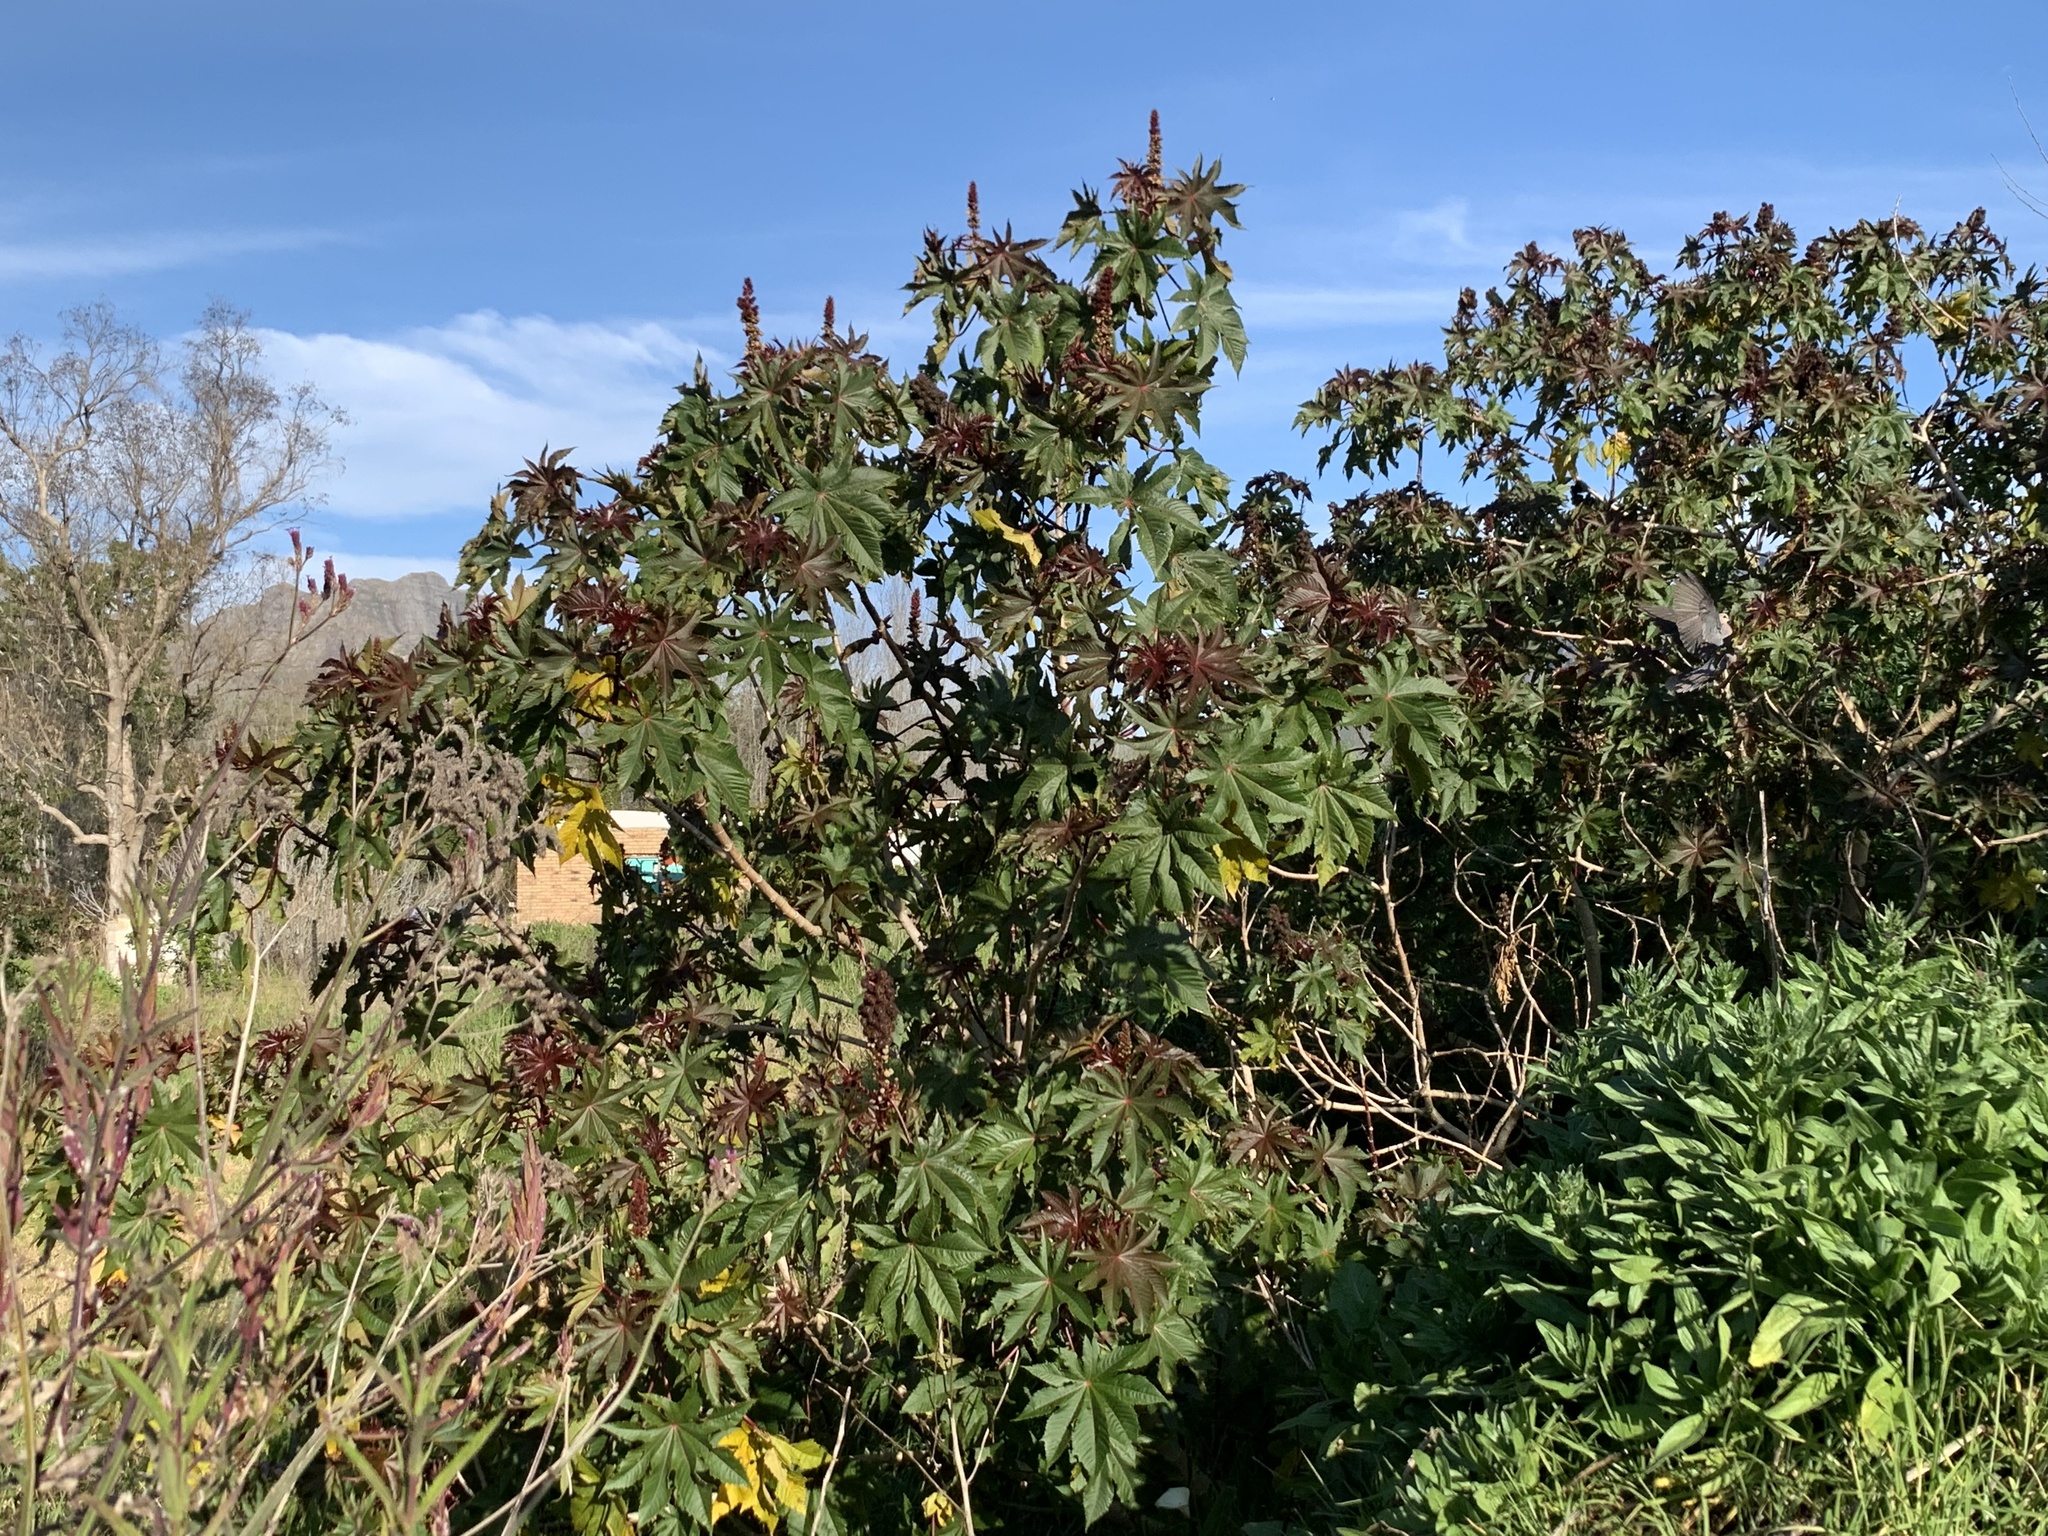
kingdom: Plantae
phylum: Tracheophyta
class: Magnoliopsida
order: Malpighiales
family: Euphorbiaceae
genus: Ricinus
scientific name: Ricinus communis
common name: Castor-oil-plant
